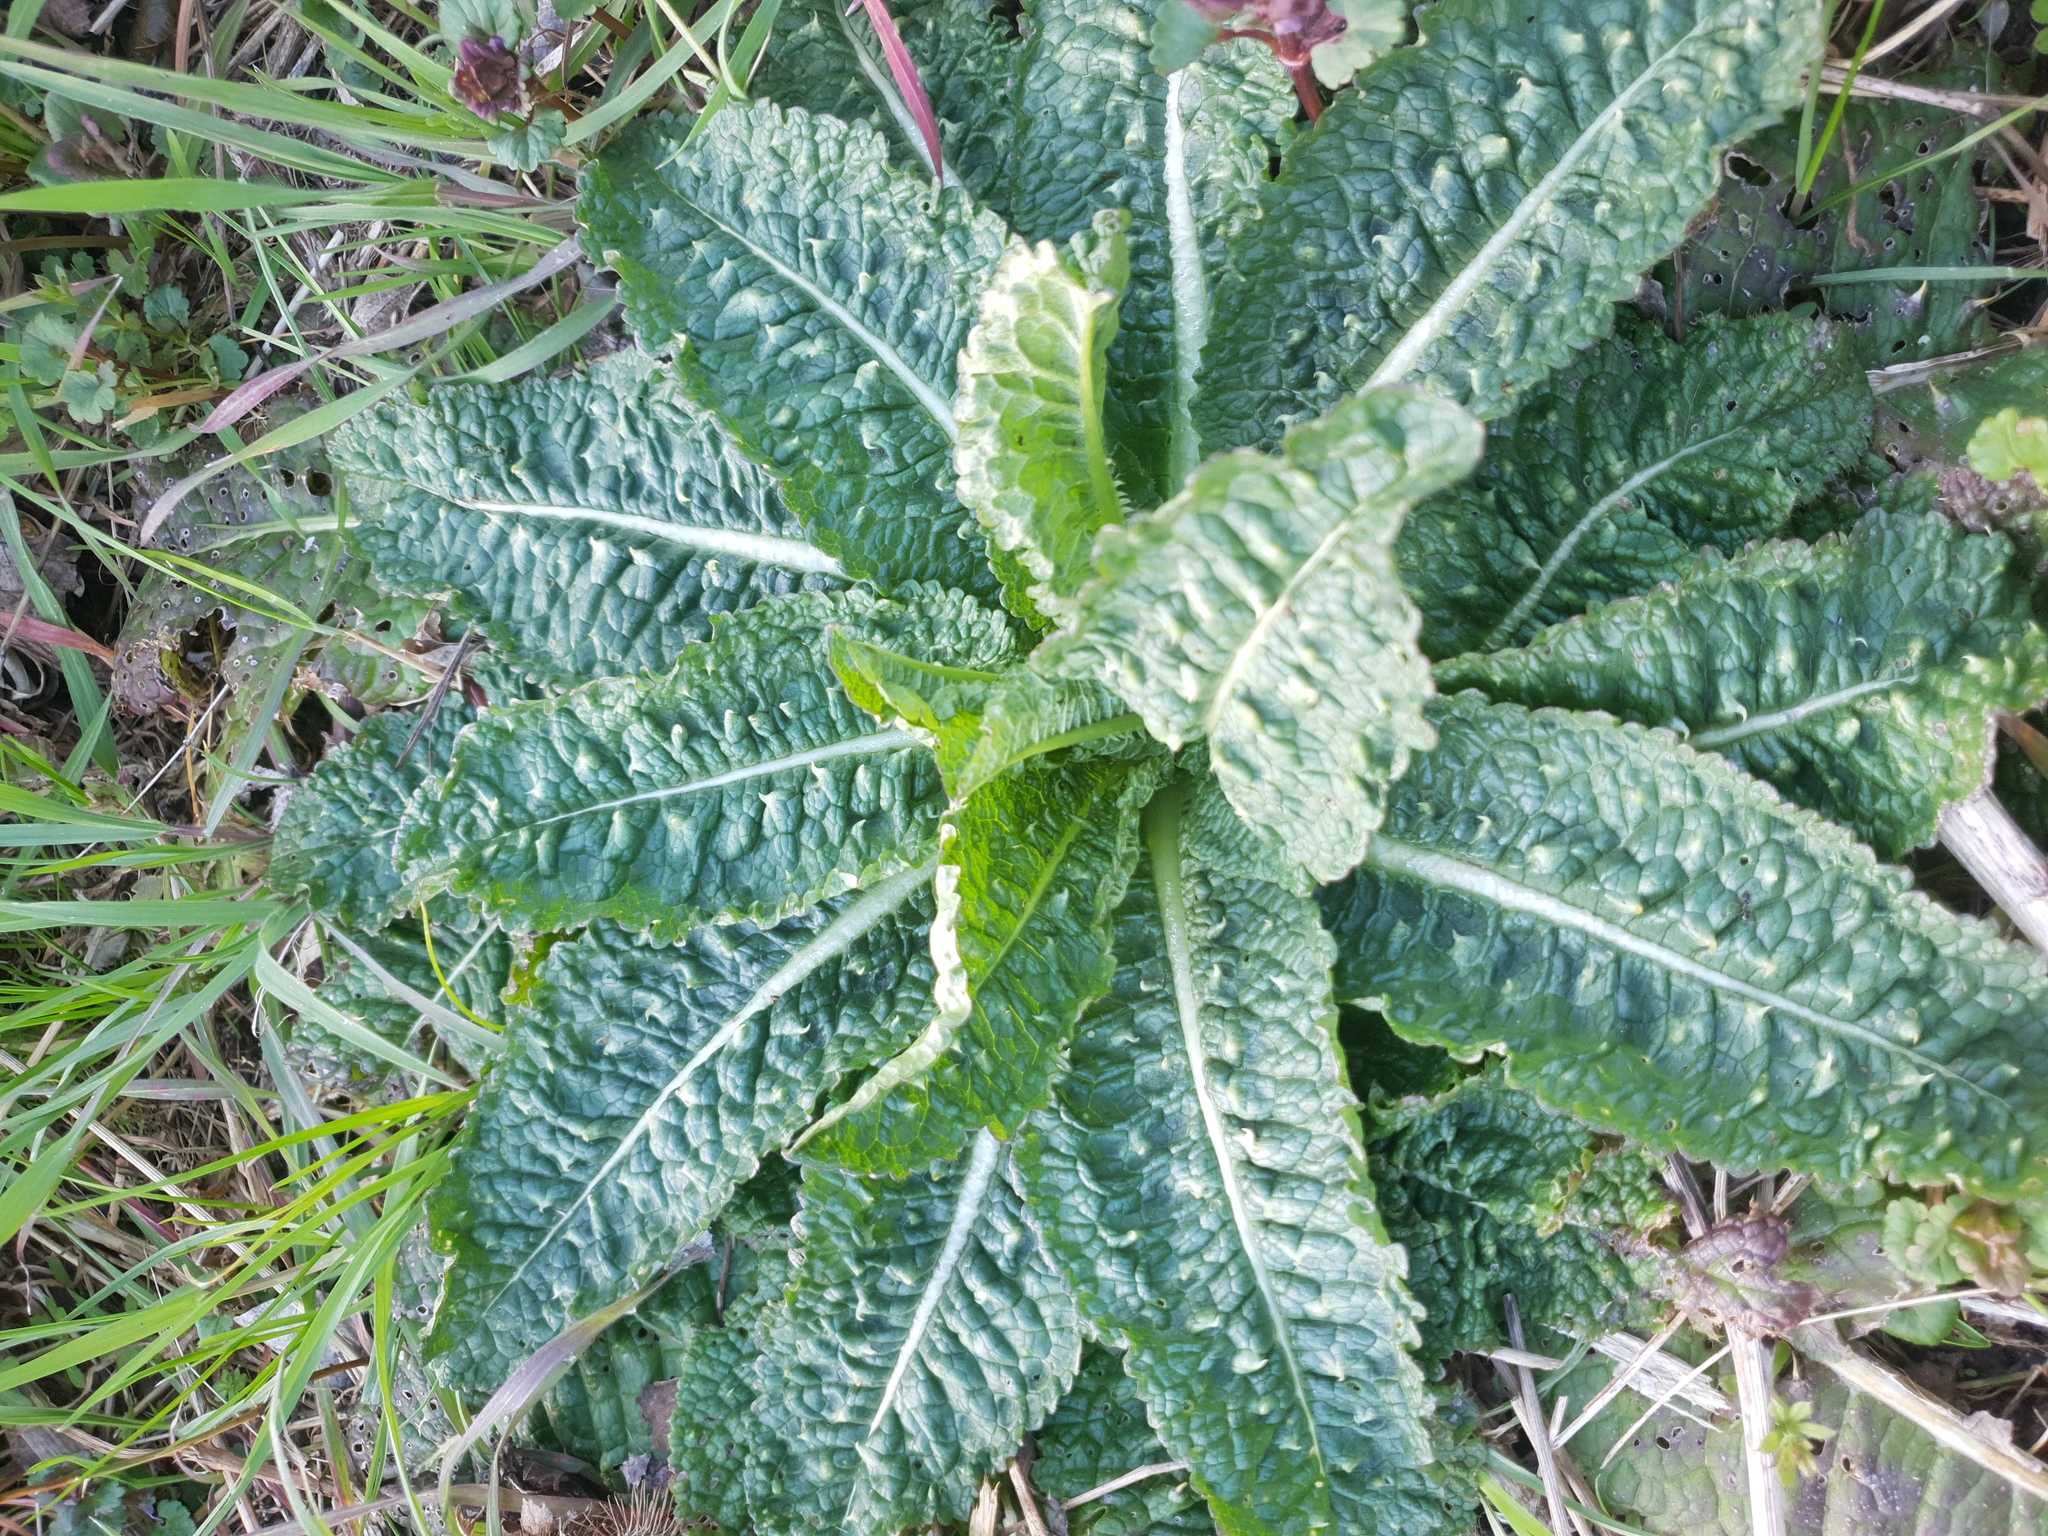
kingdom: Plantae
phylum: Tracheophyta
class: Magnoliopsida
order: Dipsacales
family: Caprifoliaceae
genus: Dipsacus
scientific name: Dipsacus fullonum
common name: Teasel
